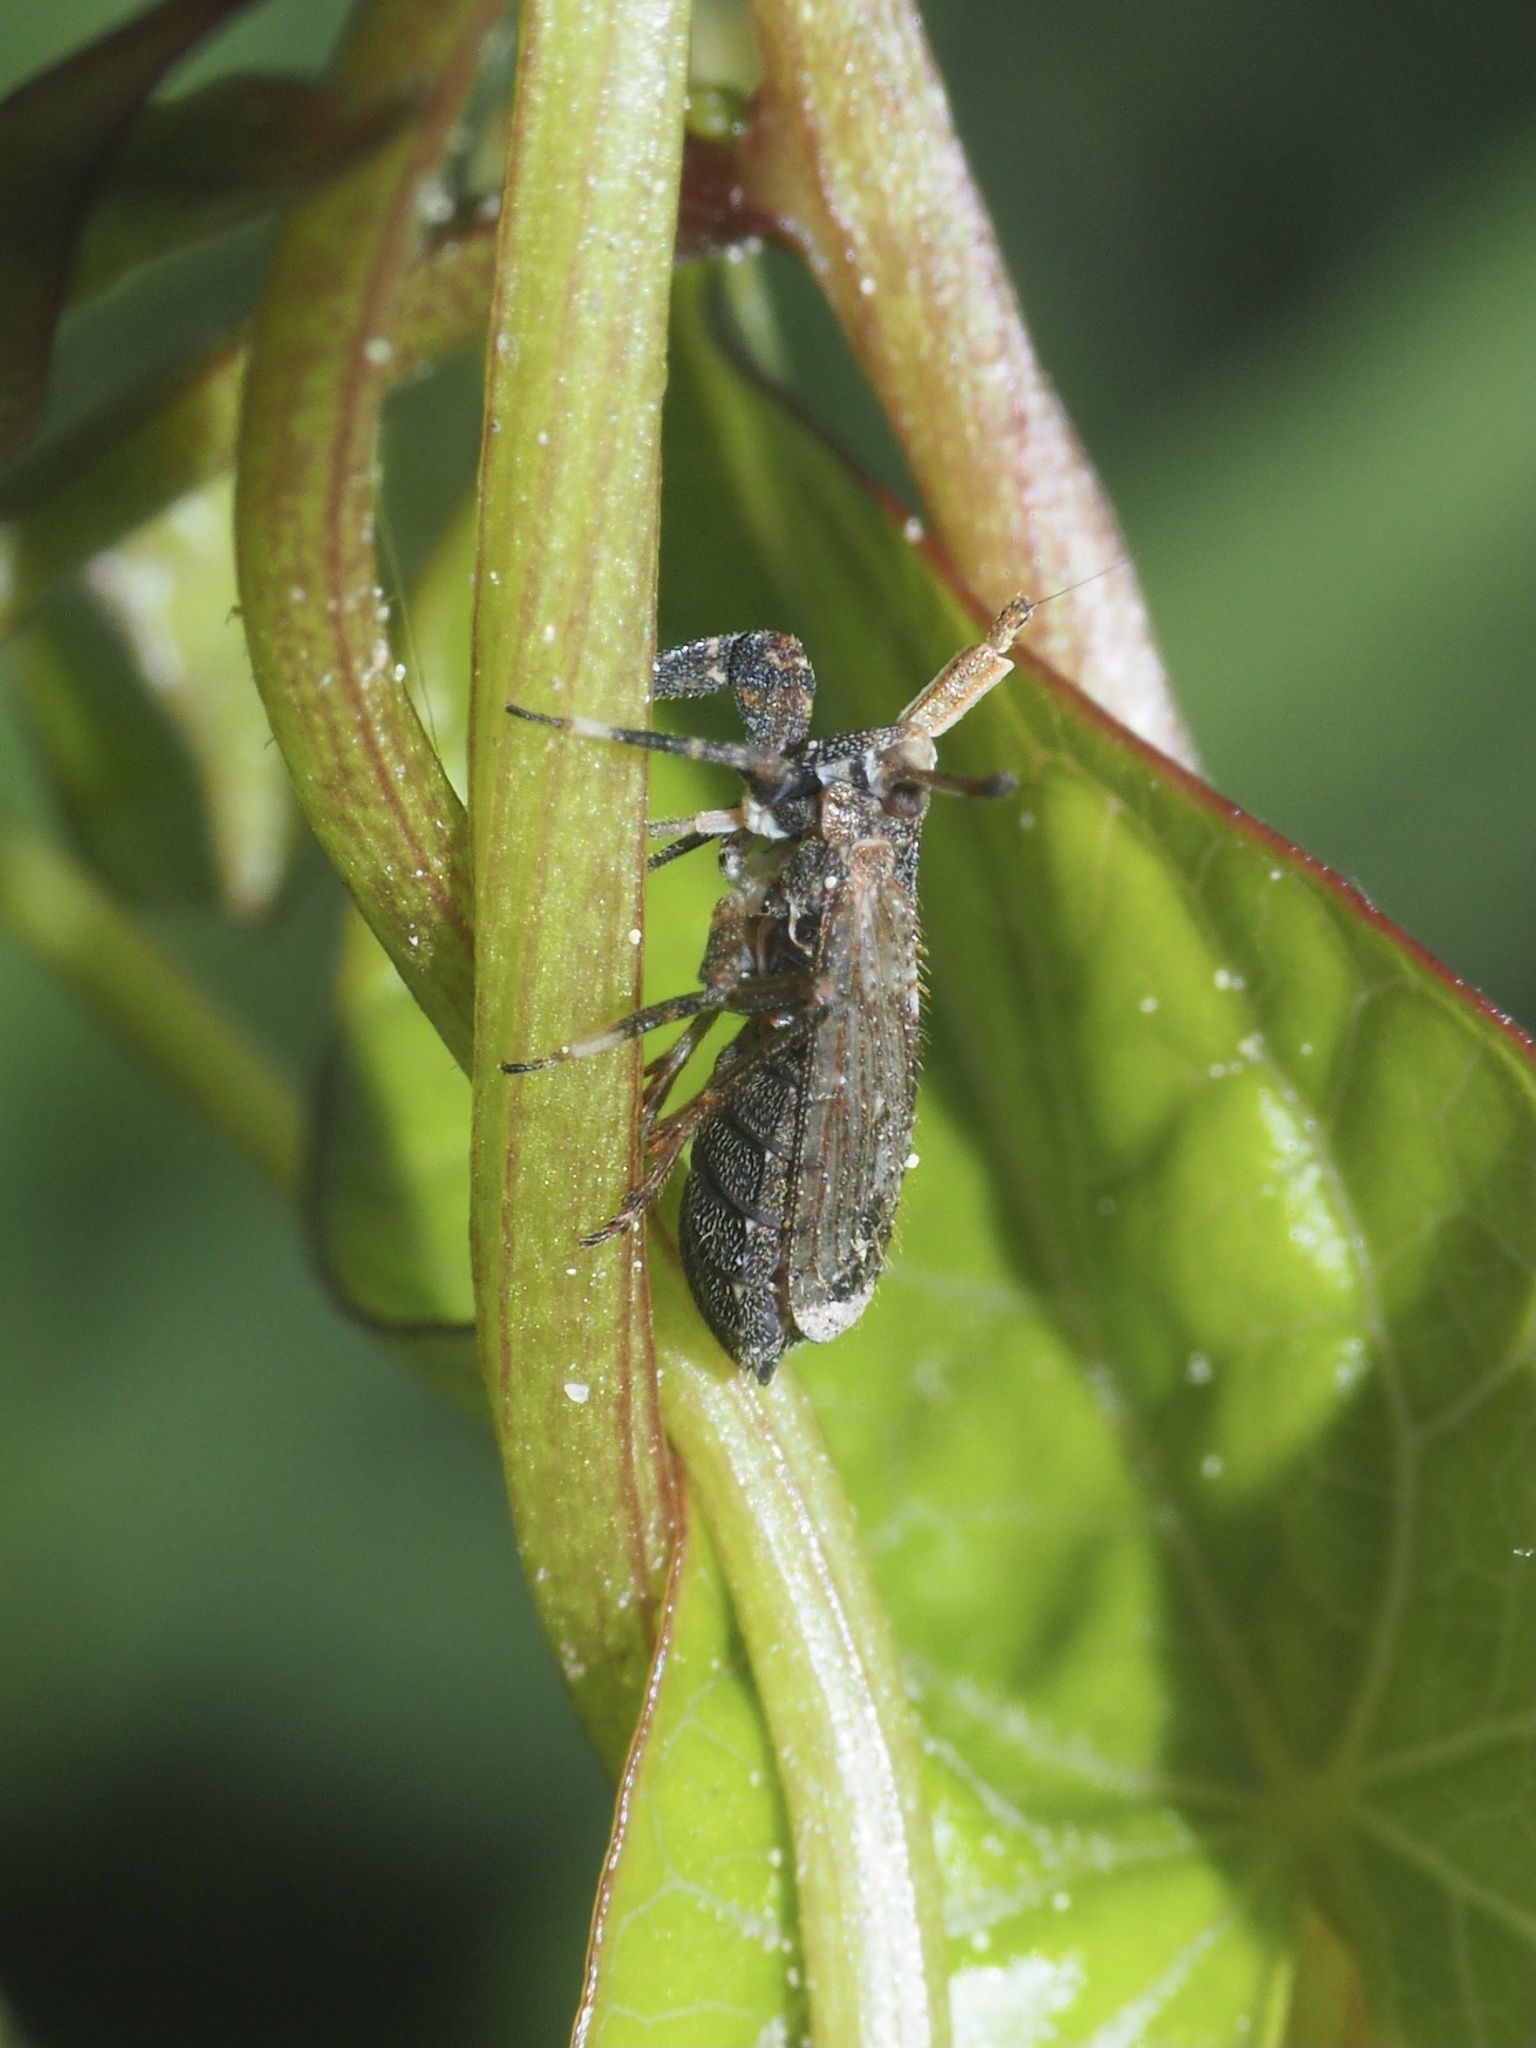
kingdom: Animalia
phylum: Arthropoda
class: Insecta
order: Hemiptera
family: Delphacidae
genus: Asiraca
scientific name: Asiraca clavicornis
